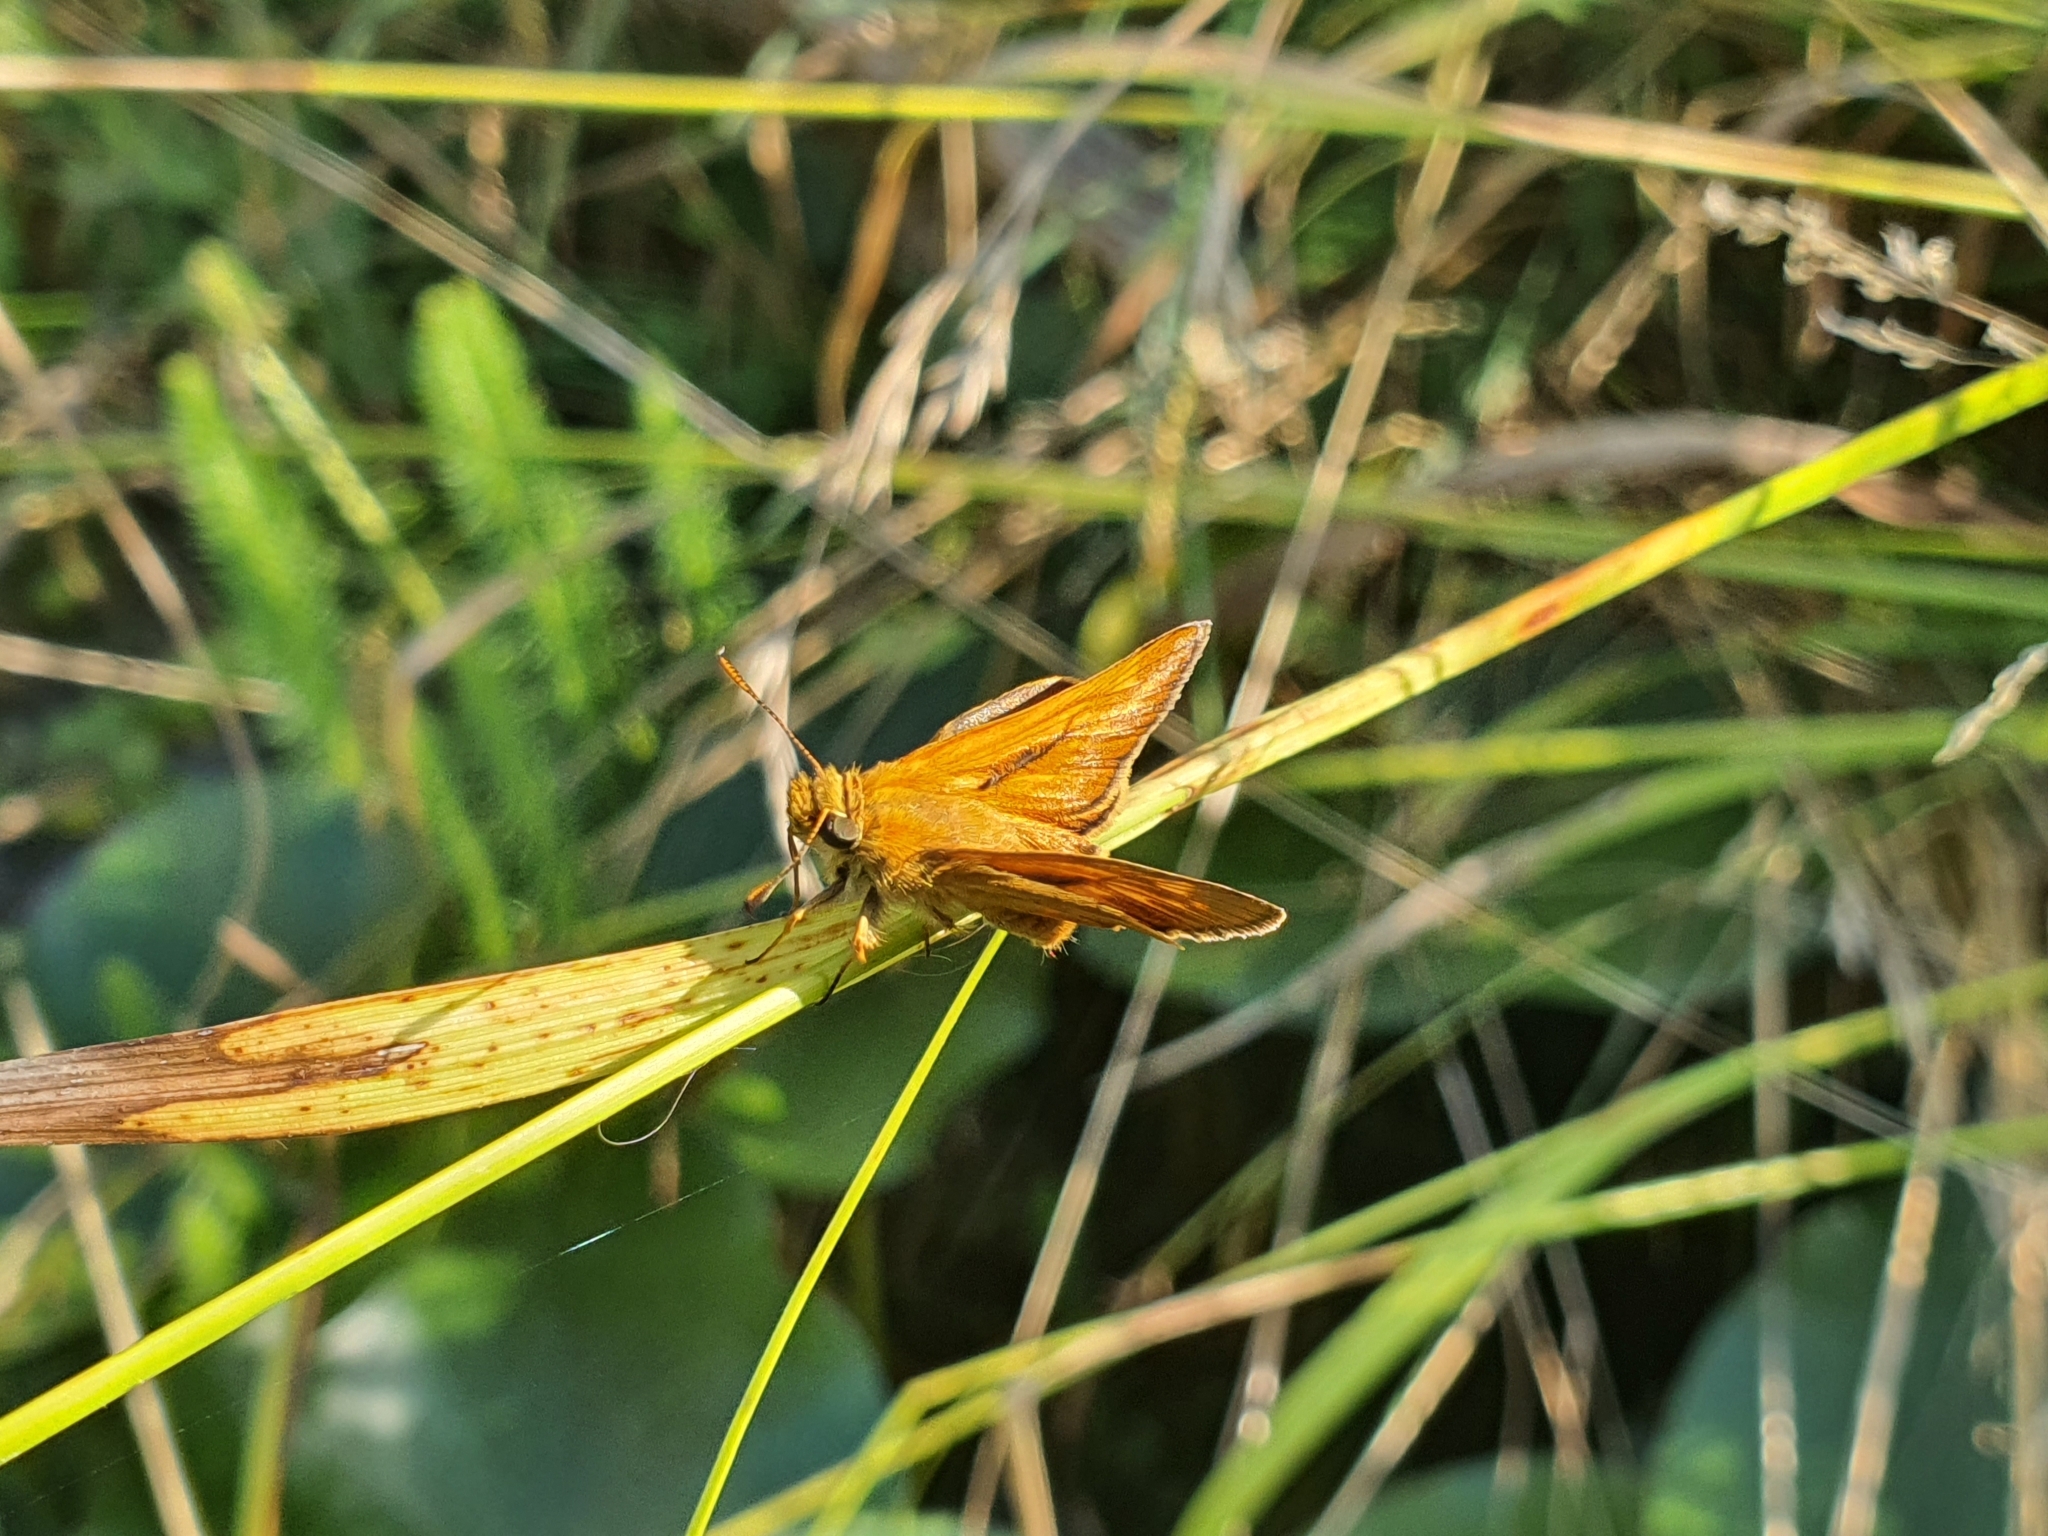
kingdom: Animalia
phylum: Arthropoda
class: Insecta
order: Lepidoptera
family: Hesperiidae
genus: Ochlodes
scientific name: Ochlodes venata
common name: Large skipper
